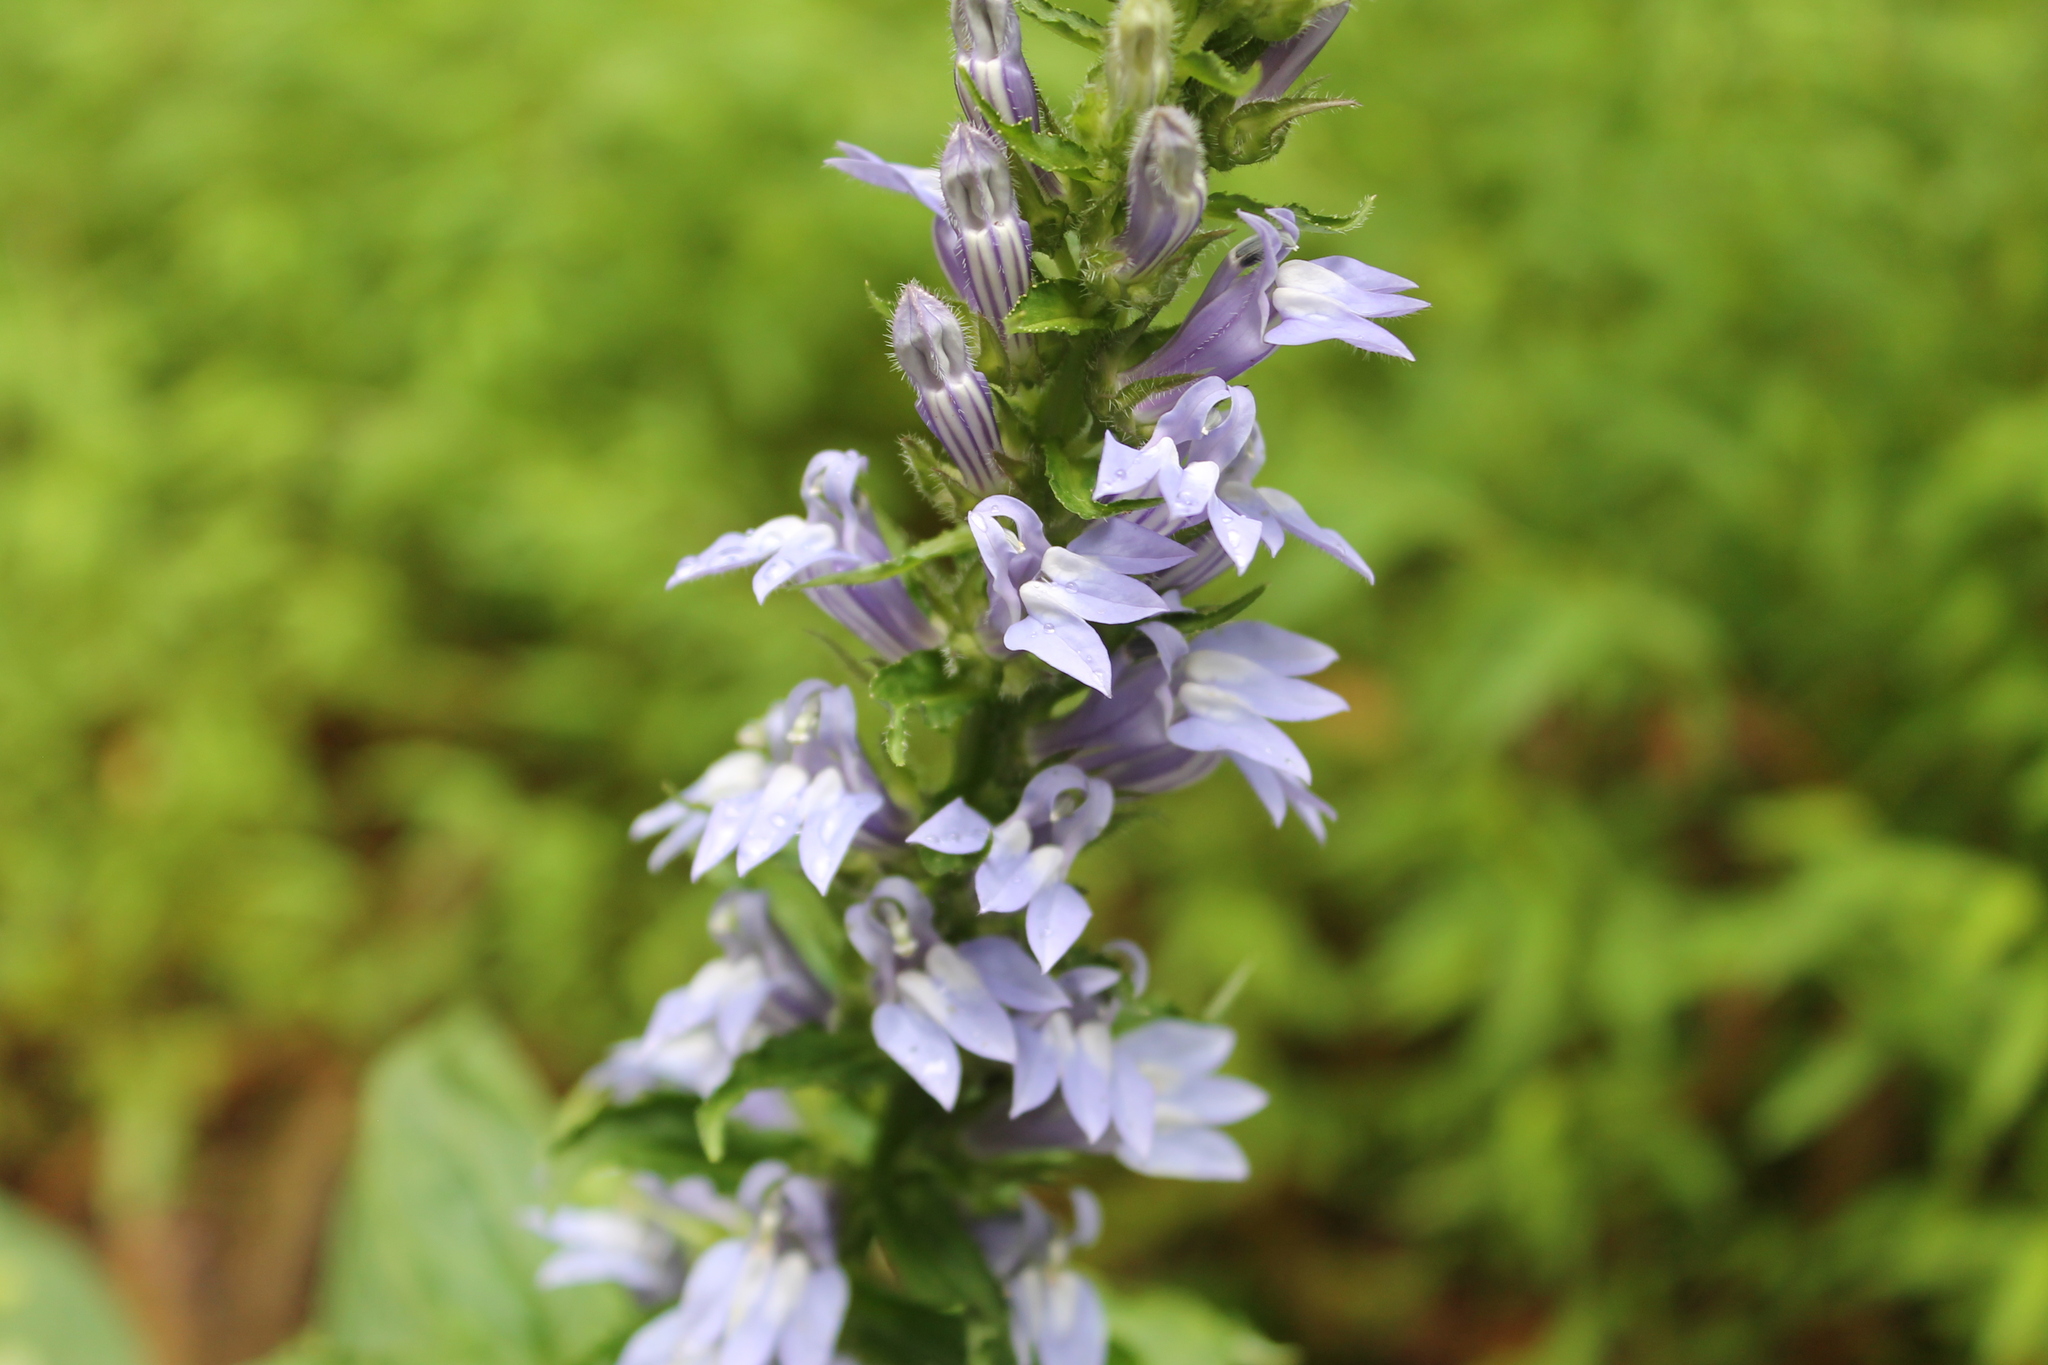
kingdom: Plantae
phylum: Tracheophyta
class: Magnoliopsida
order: Asterales
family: Campanulaceae
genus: Lobelia
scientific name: Lobelia siphilitica
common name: Great lobelia
